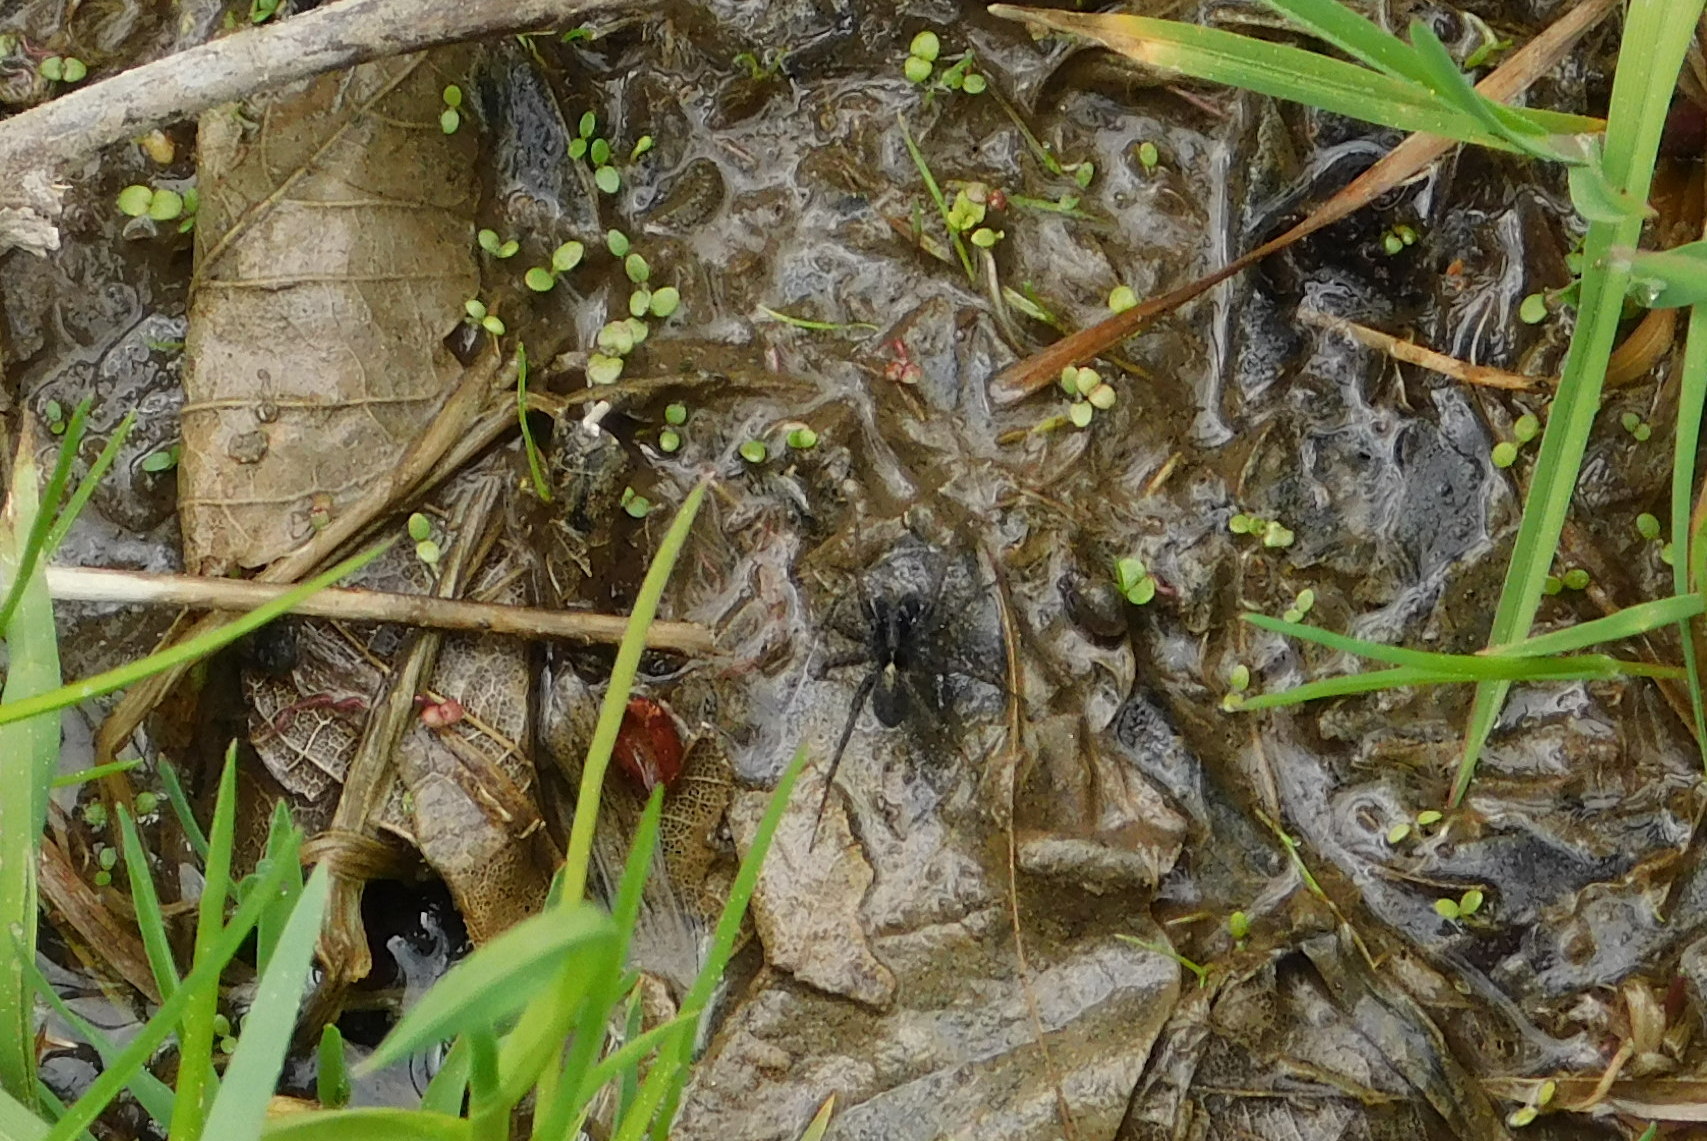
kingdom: Animalia
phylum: Arthropoda
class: Arachnida
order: Araneae
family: Lycosidae
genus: Pardosa
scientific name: Pardosa amentata
